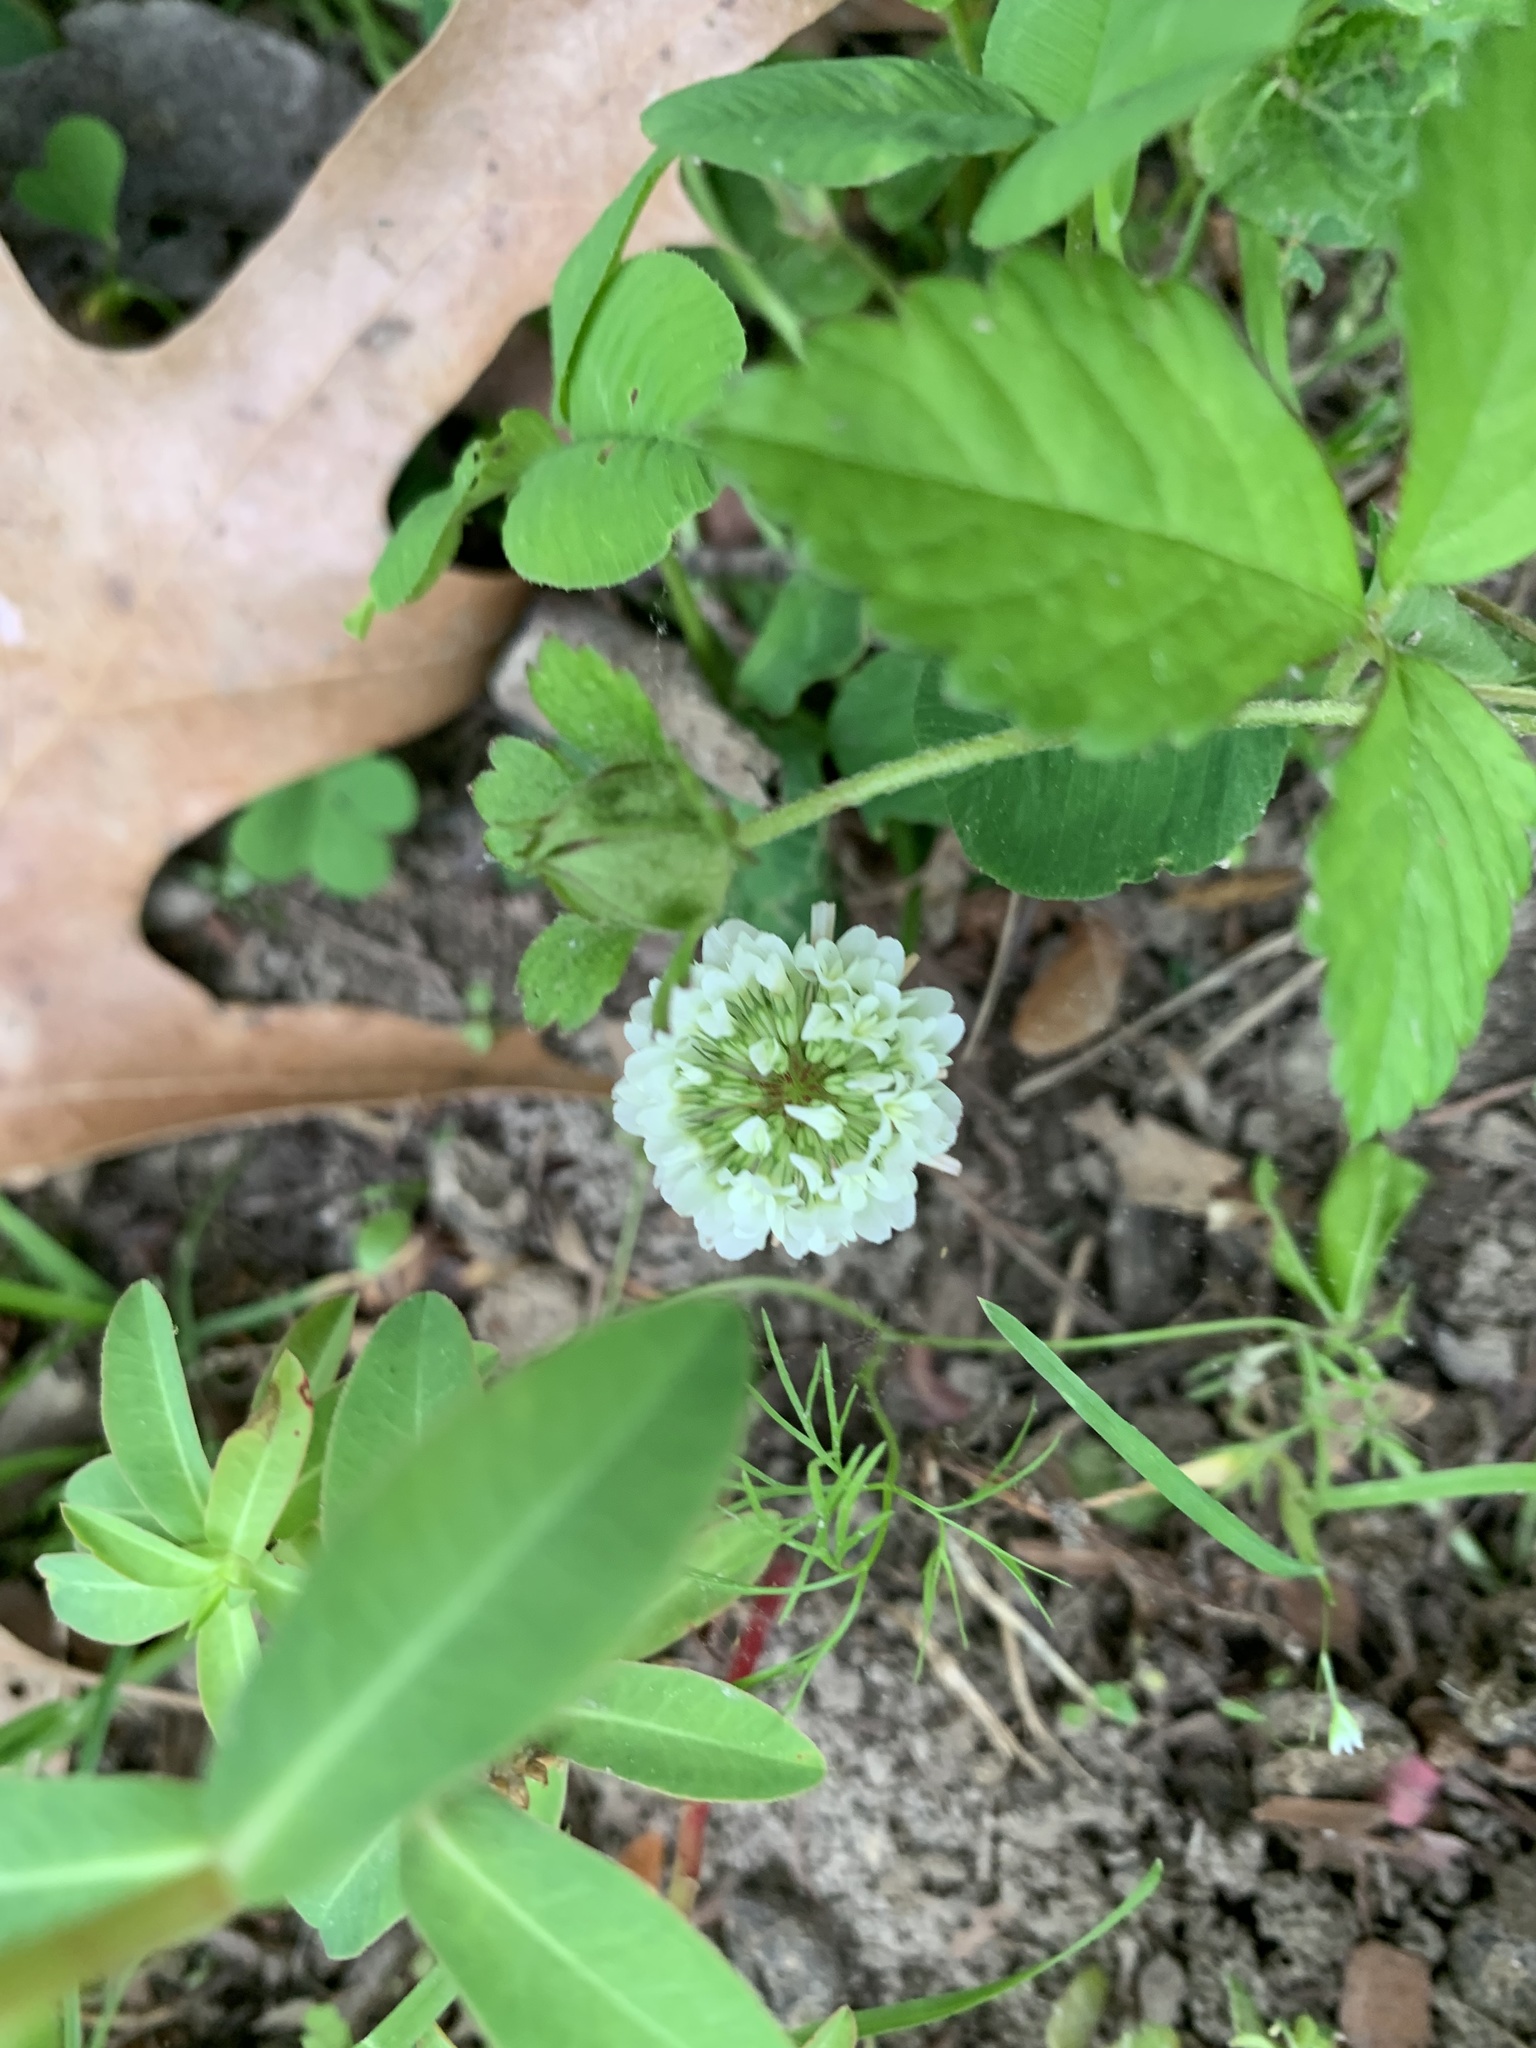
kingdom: Plantae
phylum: Tracheophyta
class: Magnoliopsida
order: Fabales
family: Fabaceae
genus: Trifolium
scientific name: Trifolium repens
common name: White clover
